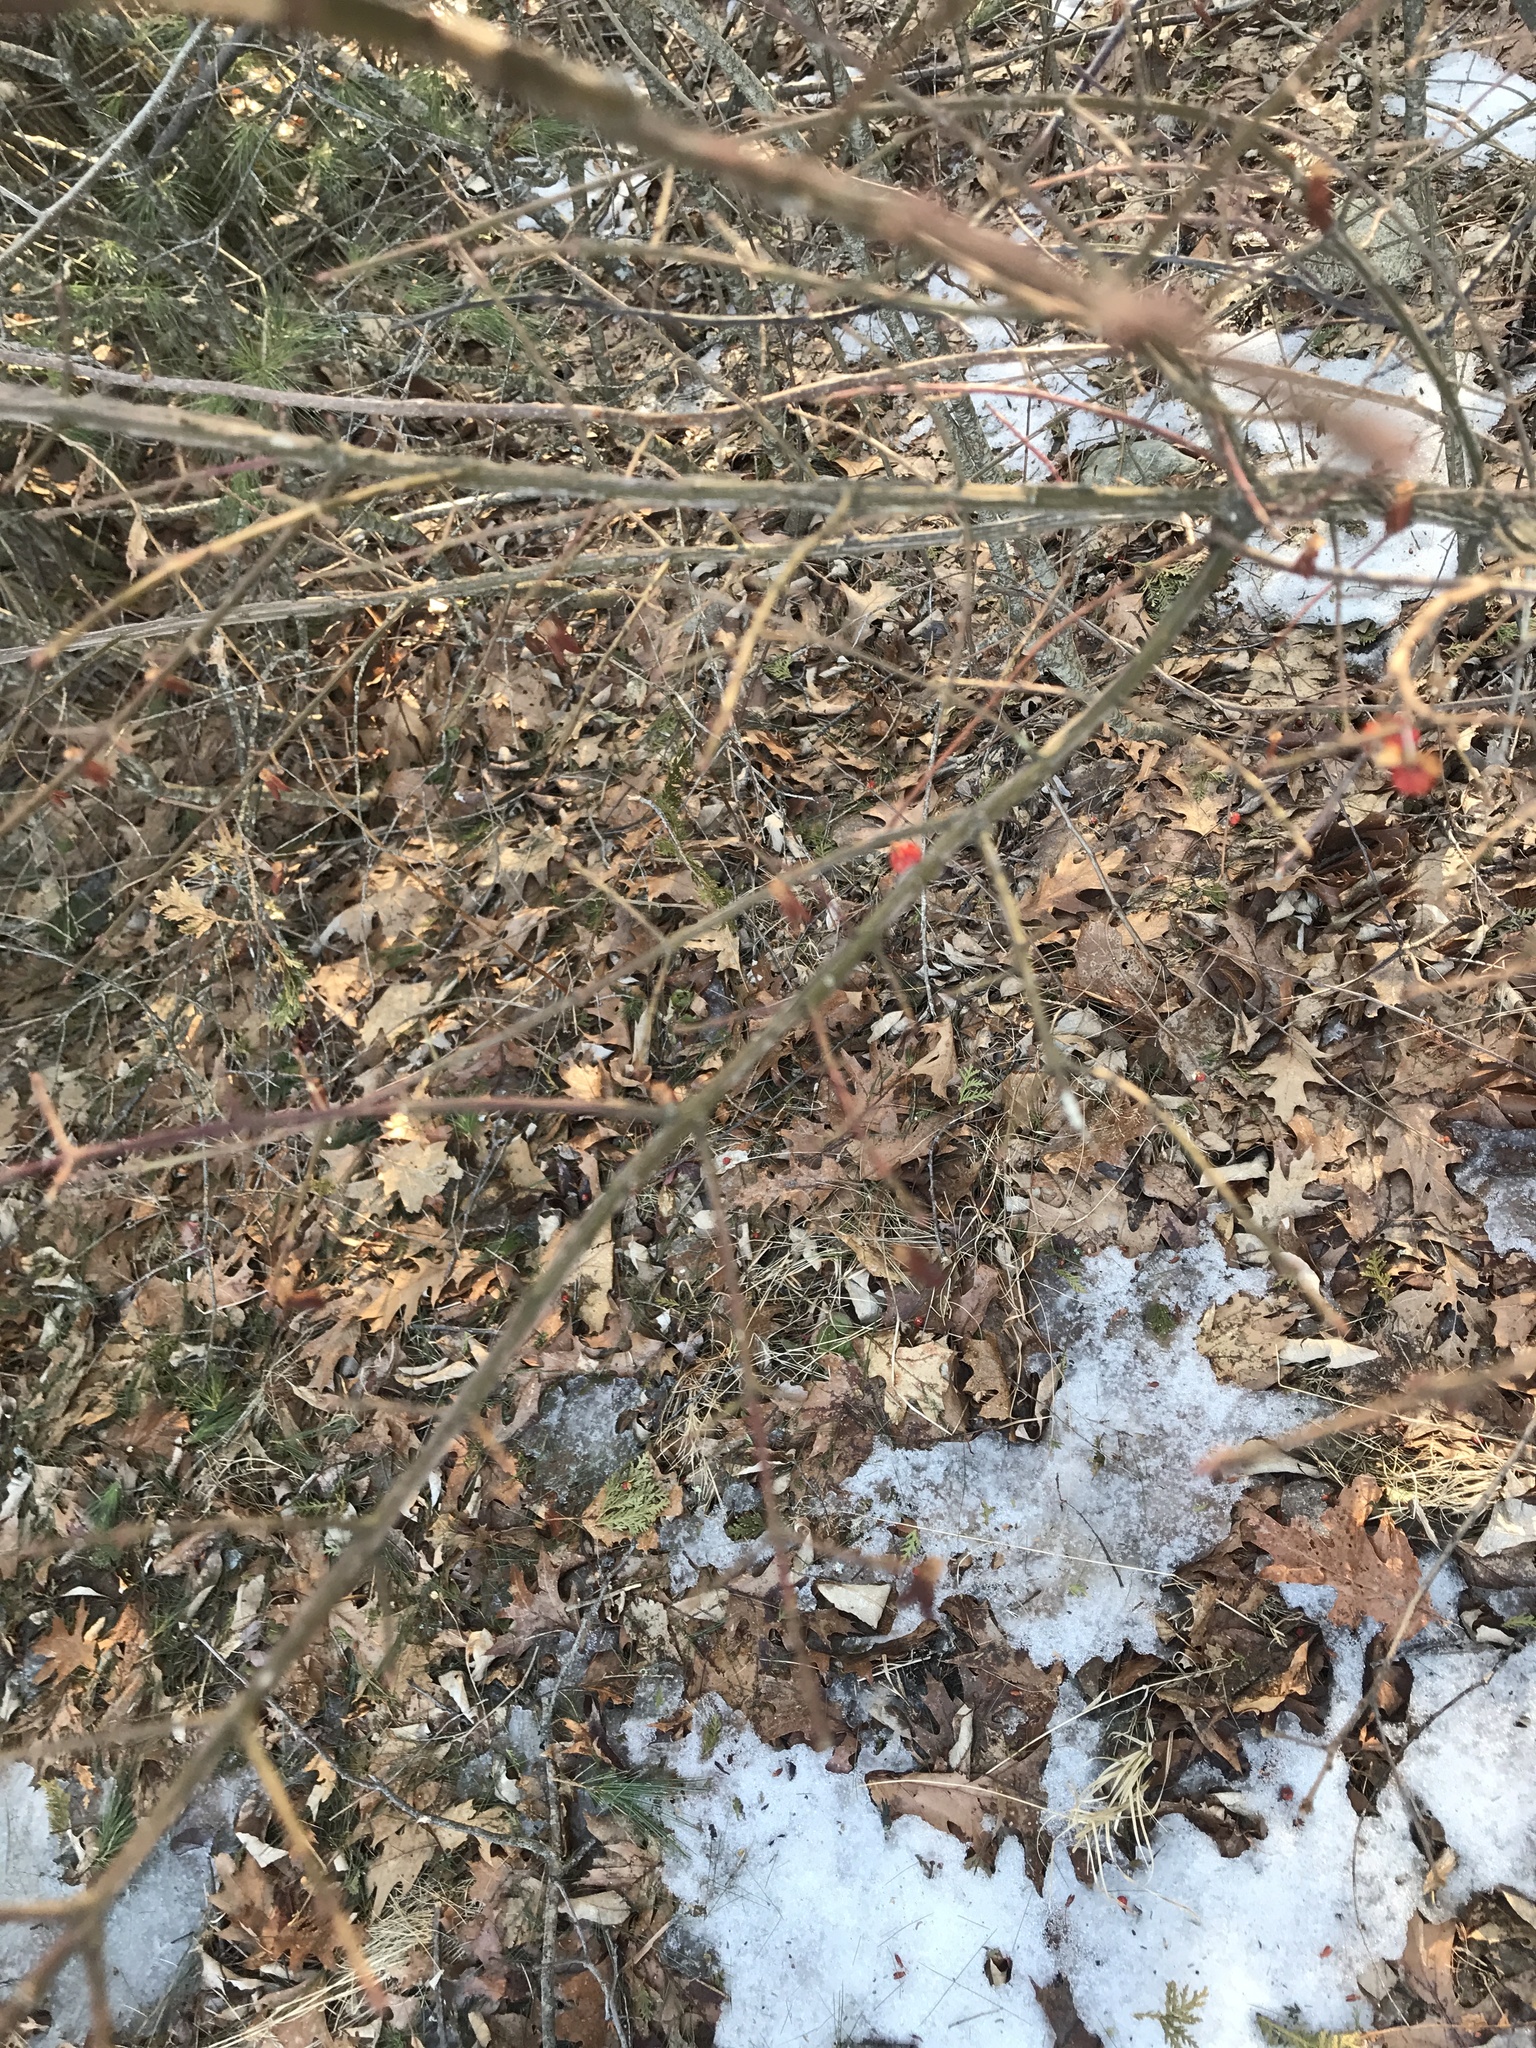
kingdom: Plantae
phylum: Tracheophyta
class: Magnoliopsida
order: Celastrales
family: Celastraceae
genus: Euonymus
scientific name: Euonymus alatus
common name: Winged euonymus
